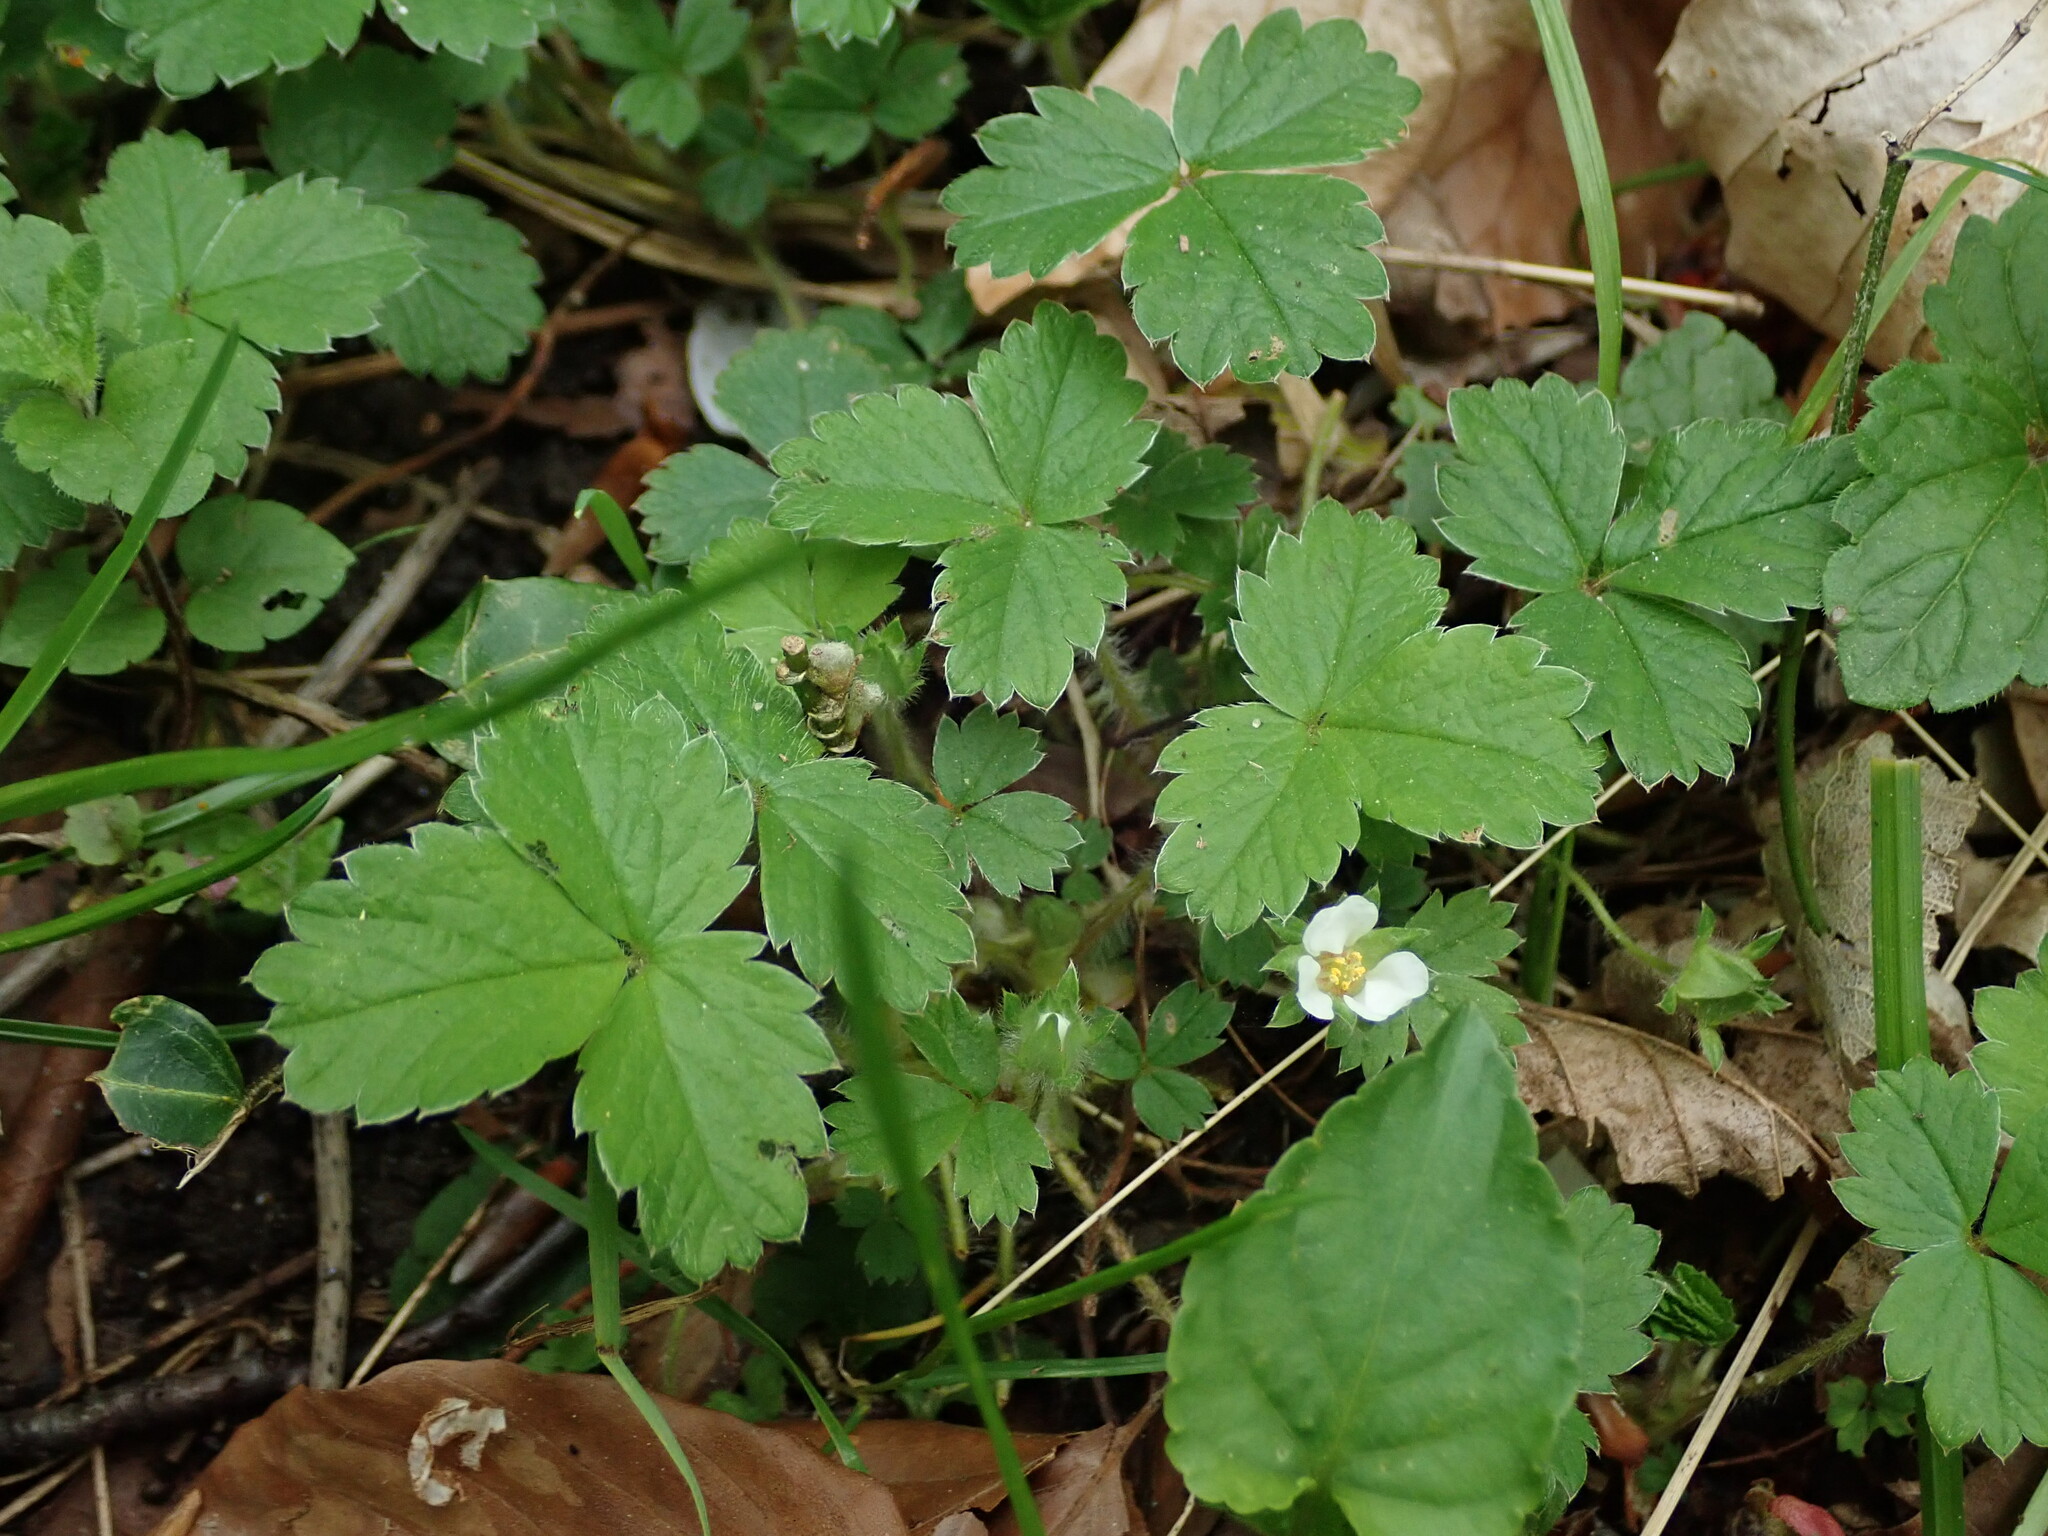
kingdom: Plantae
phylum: Tracheophyta
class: Magnoliopsida
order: Rosales
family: Rosaceae
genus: Potentilla
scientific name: Potentilla sterilis
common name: Barren strawberry
